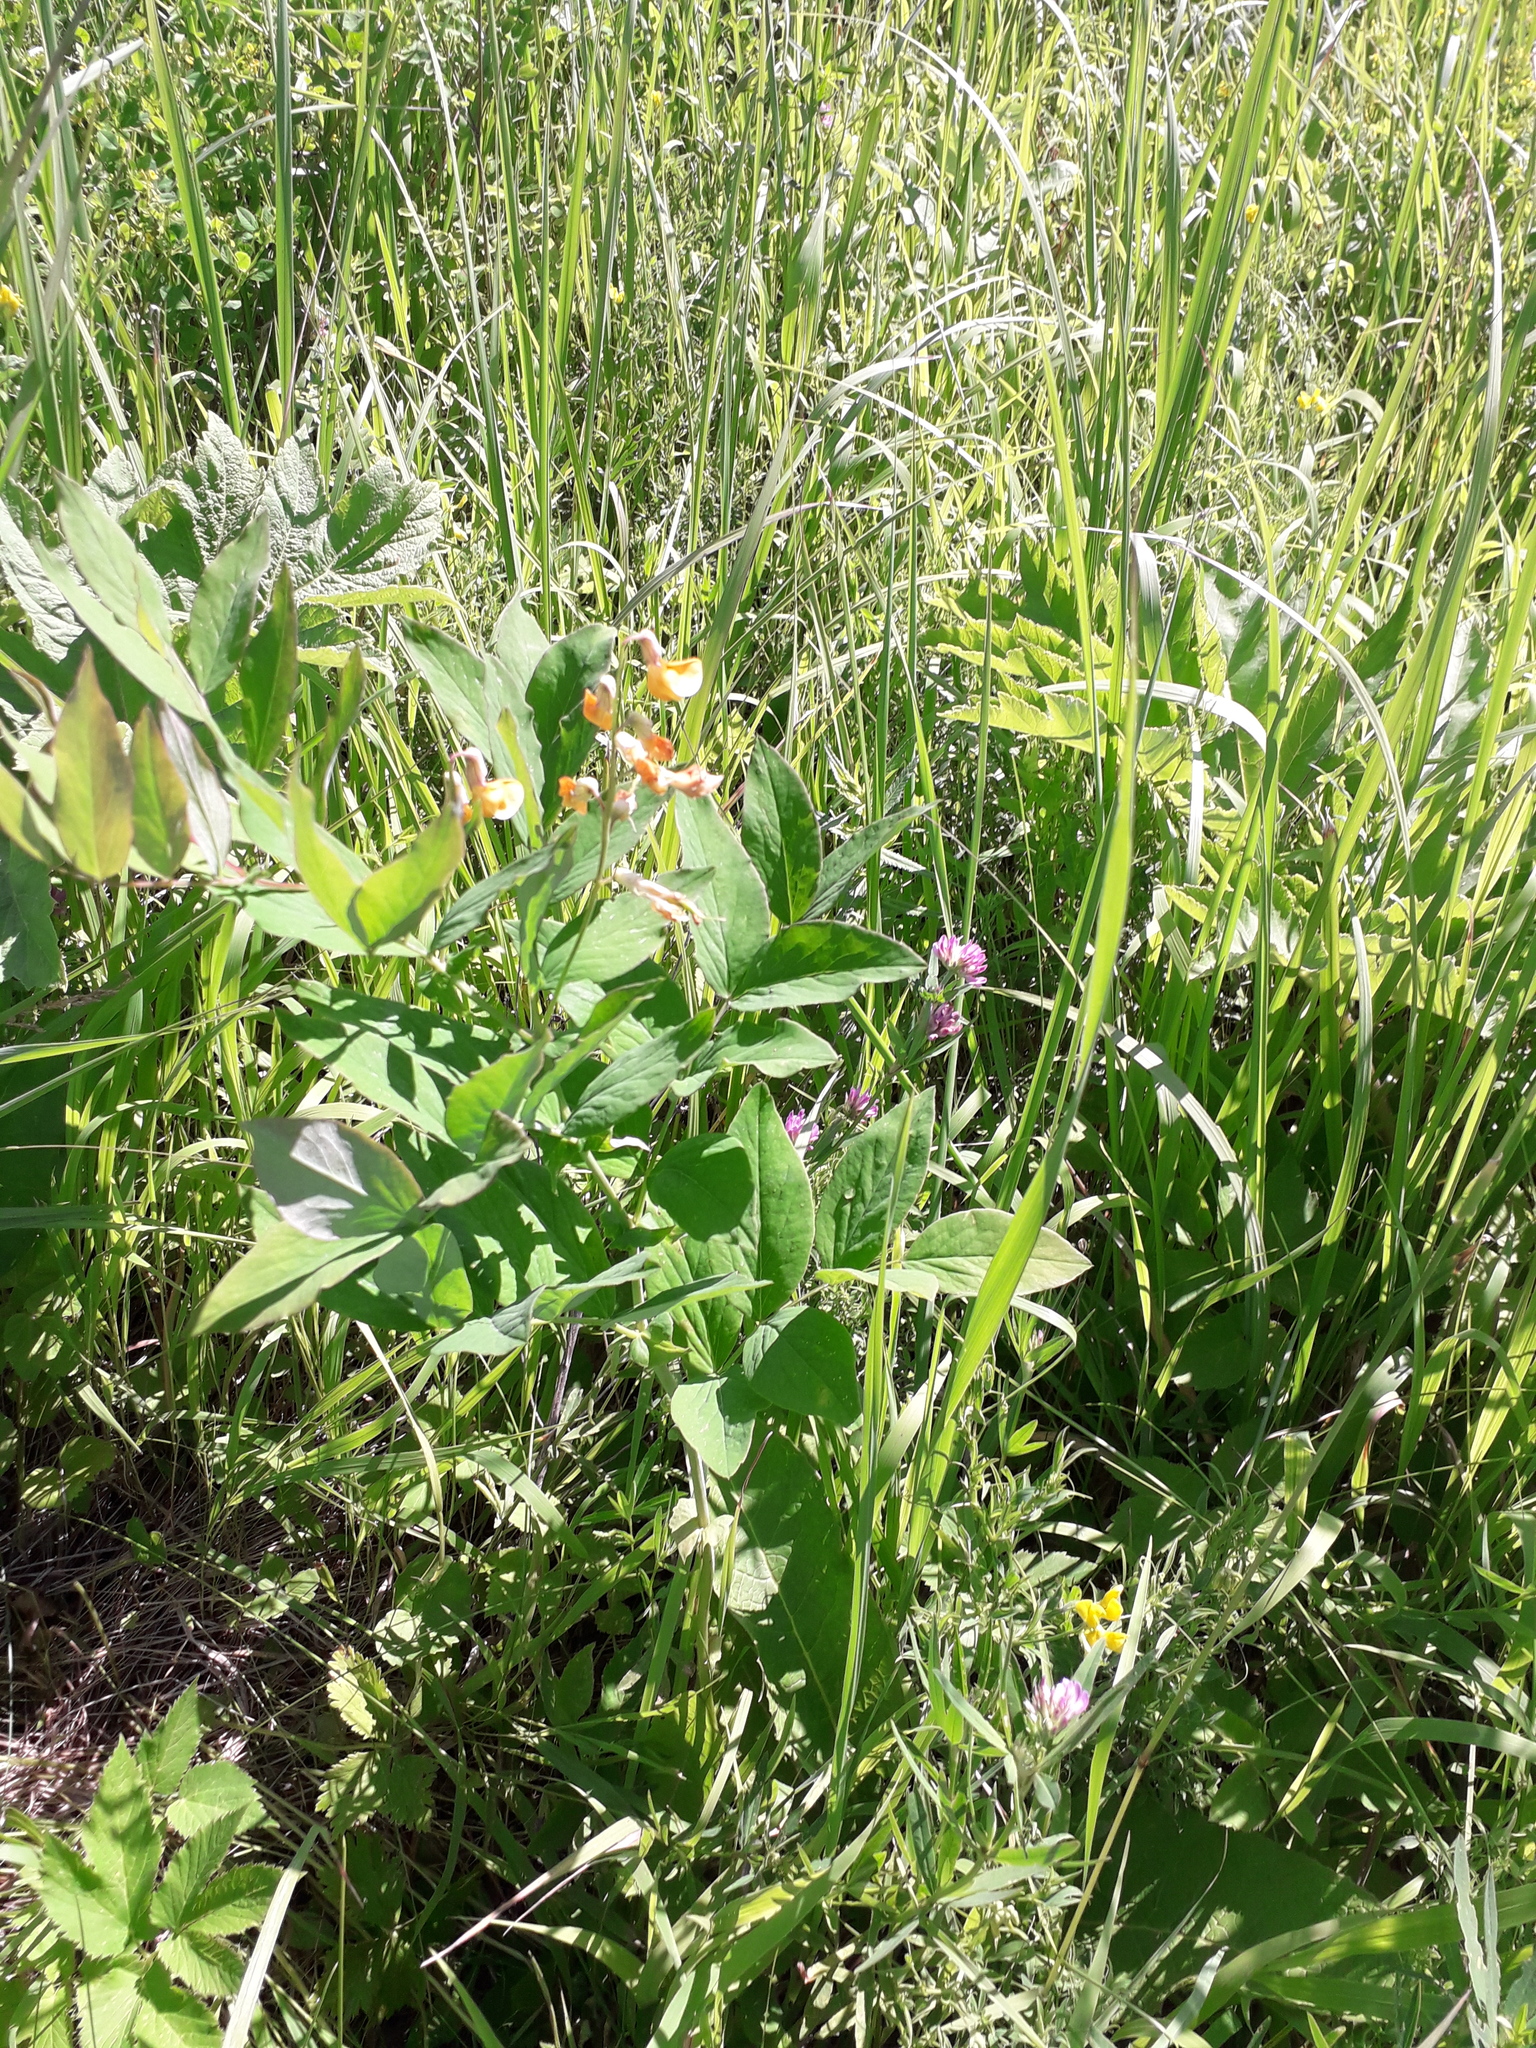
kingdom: Plantae
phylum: Tracheophyta
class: Magnoliopsida
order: Fabales
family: Fabaceae
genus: Lathyrus
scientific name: Lathyrus gmelinii
